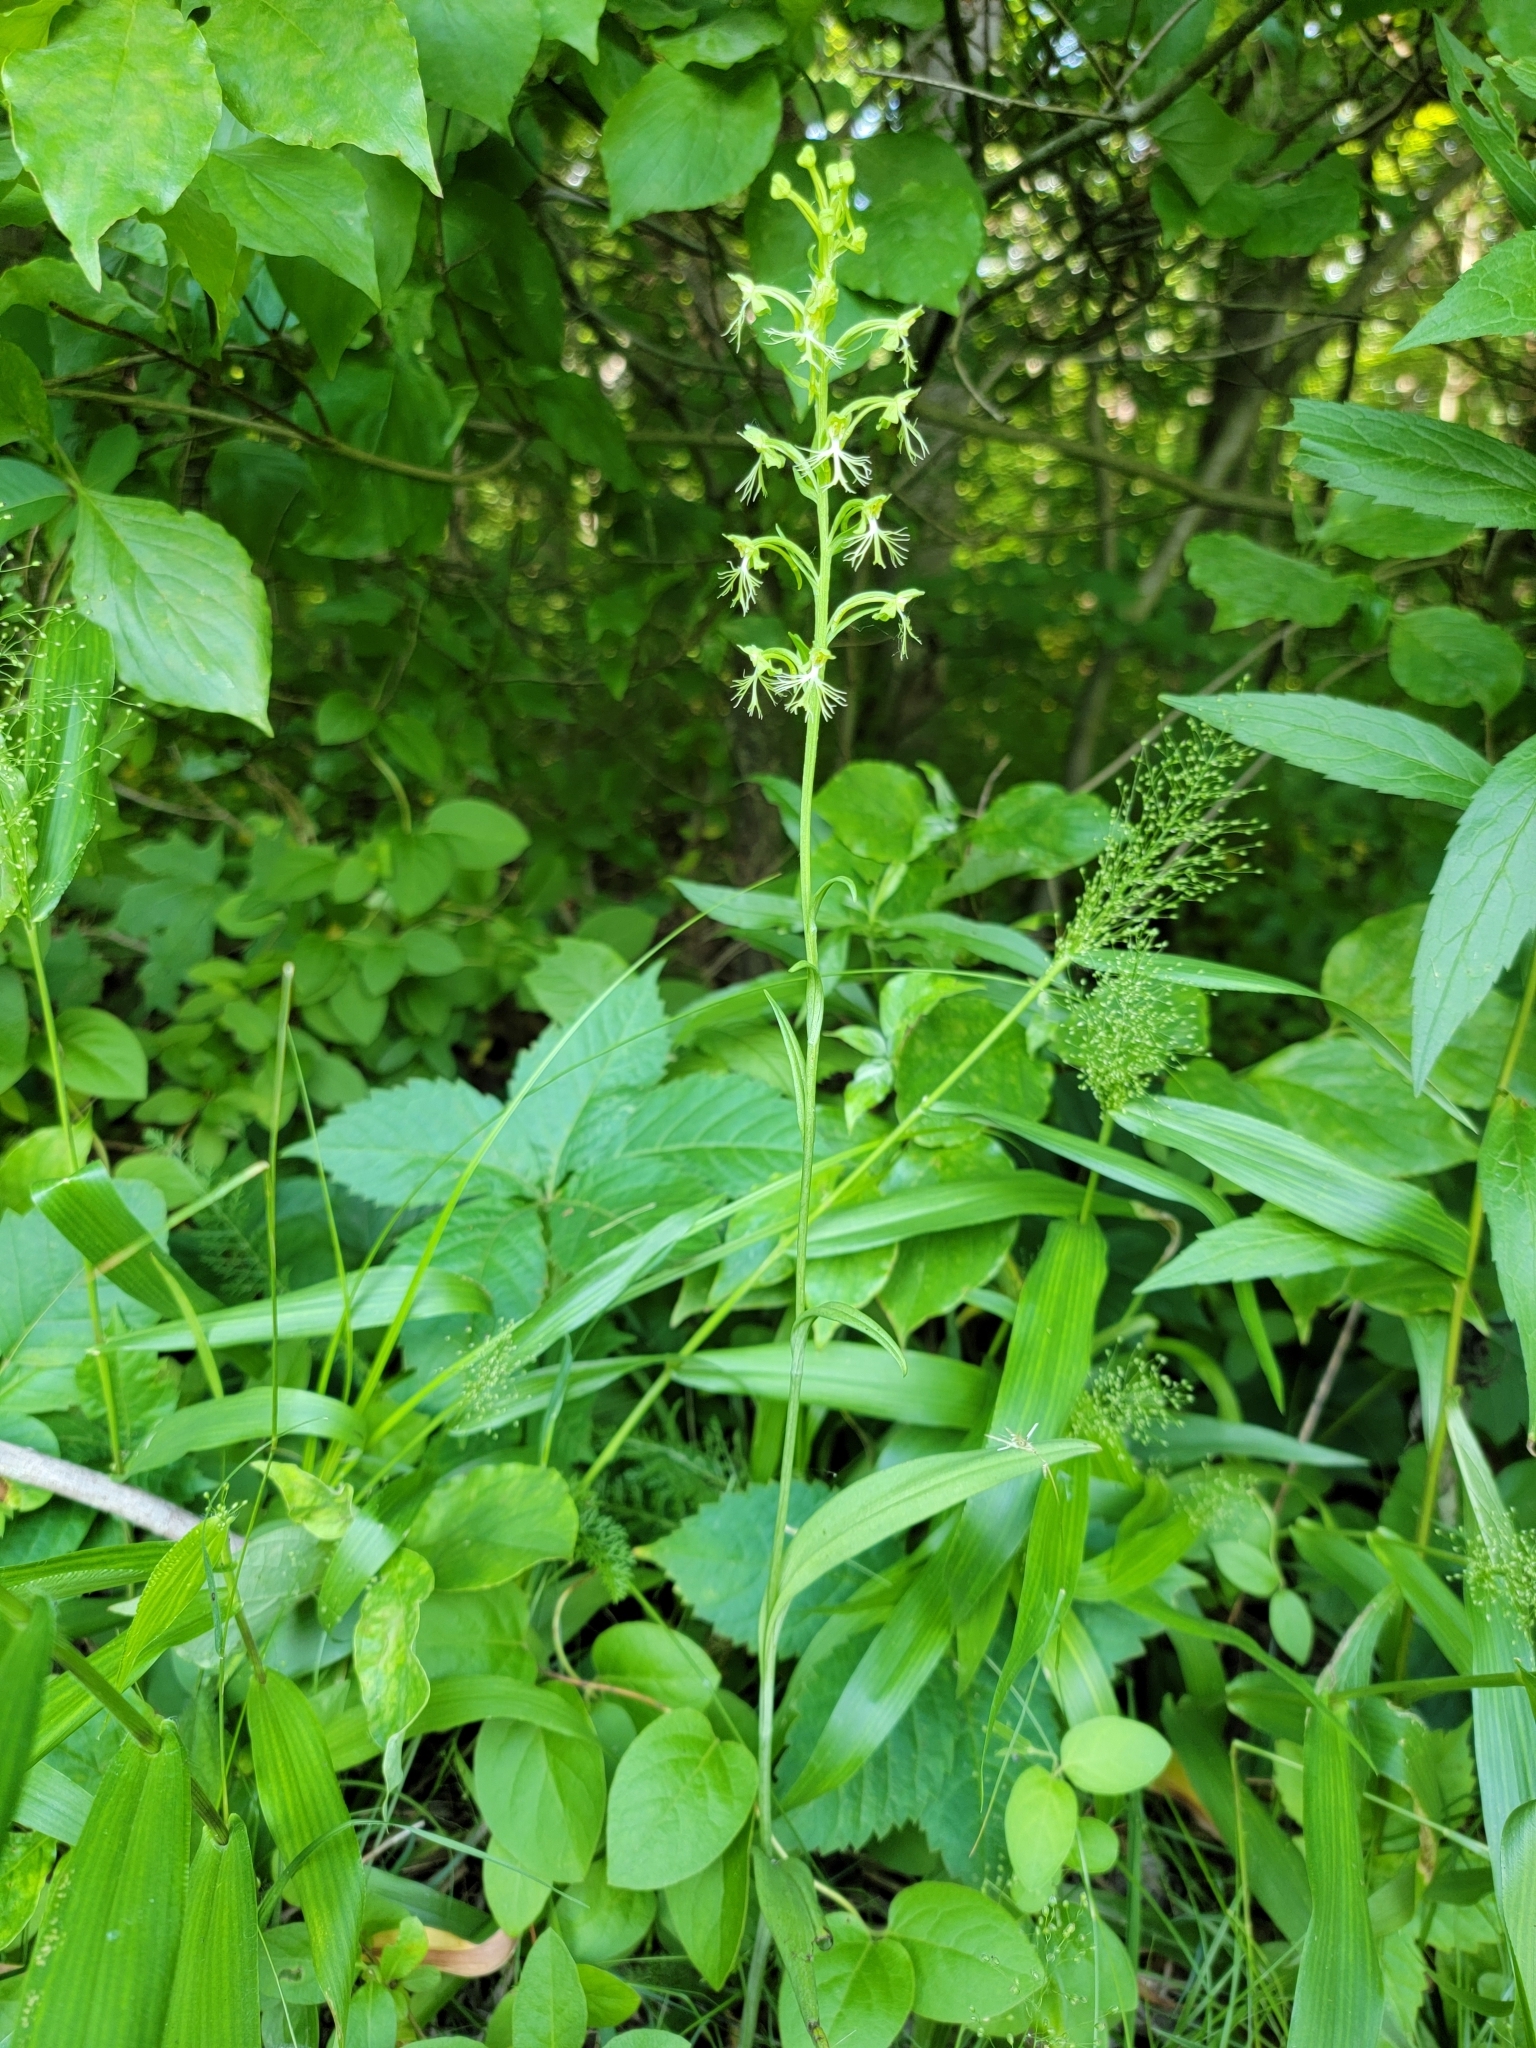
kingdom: Plantae
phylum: Tracheophyta
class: Liliopsida
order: Asparagales
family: Orchidaceae
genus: Platanthera
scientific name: Platanthera lacera
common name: Green fringed orchid
